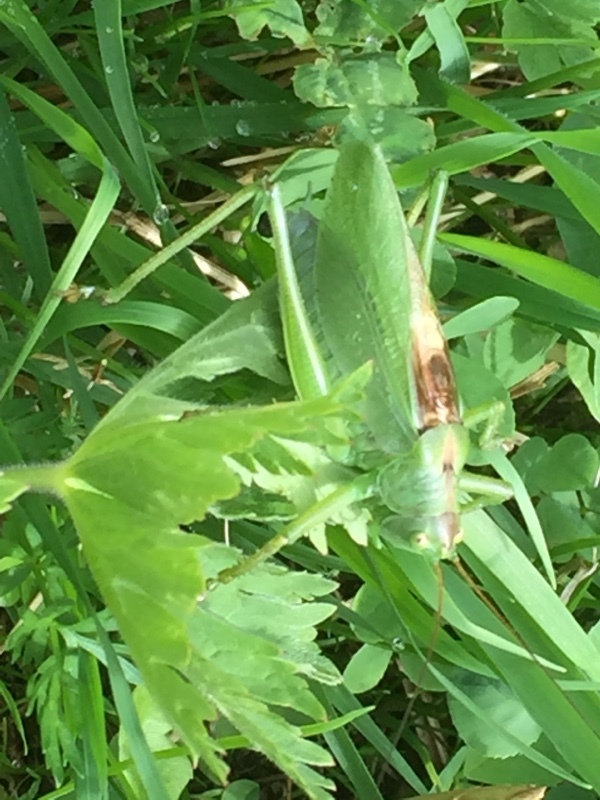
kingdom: Animalia
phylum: Arthropoda
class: Insecta
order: Orthoptera
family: Tettigoniidae
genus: Tettigonia
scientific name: Tettigonia cantans
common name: Upland green bush-cricket
